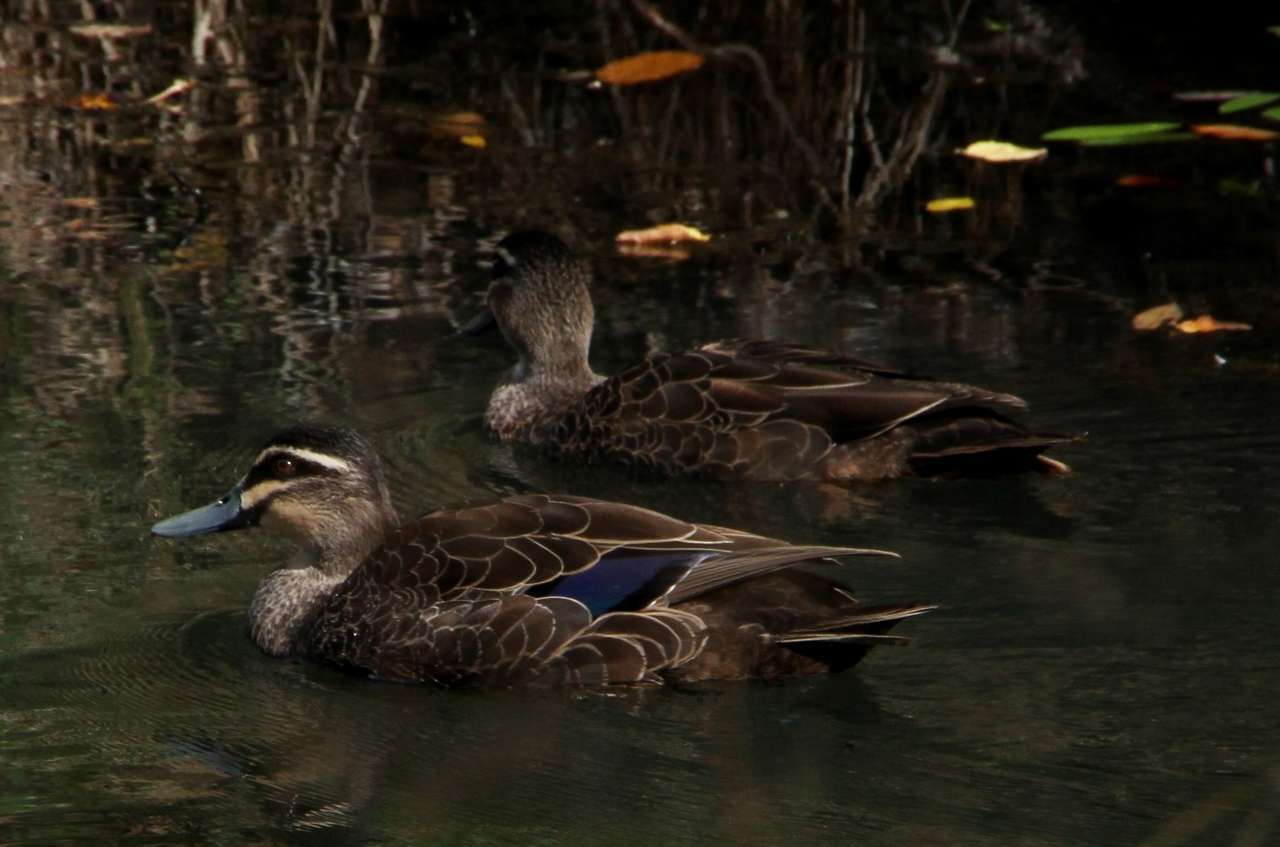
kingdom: Animalia
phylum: Chordata
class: Aves
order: Anseriformes
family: Anatidae
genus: Anas
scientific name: Anas superciliosa
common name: Pacific black duck
